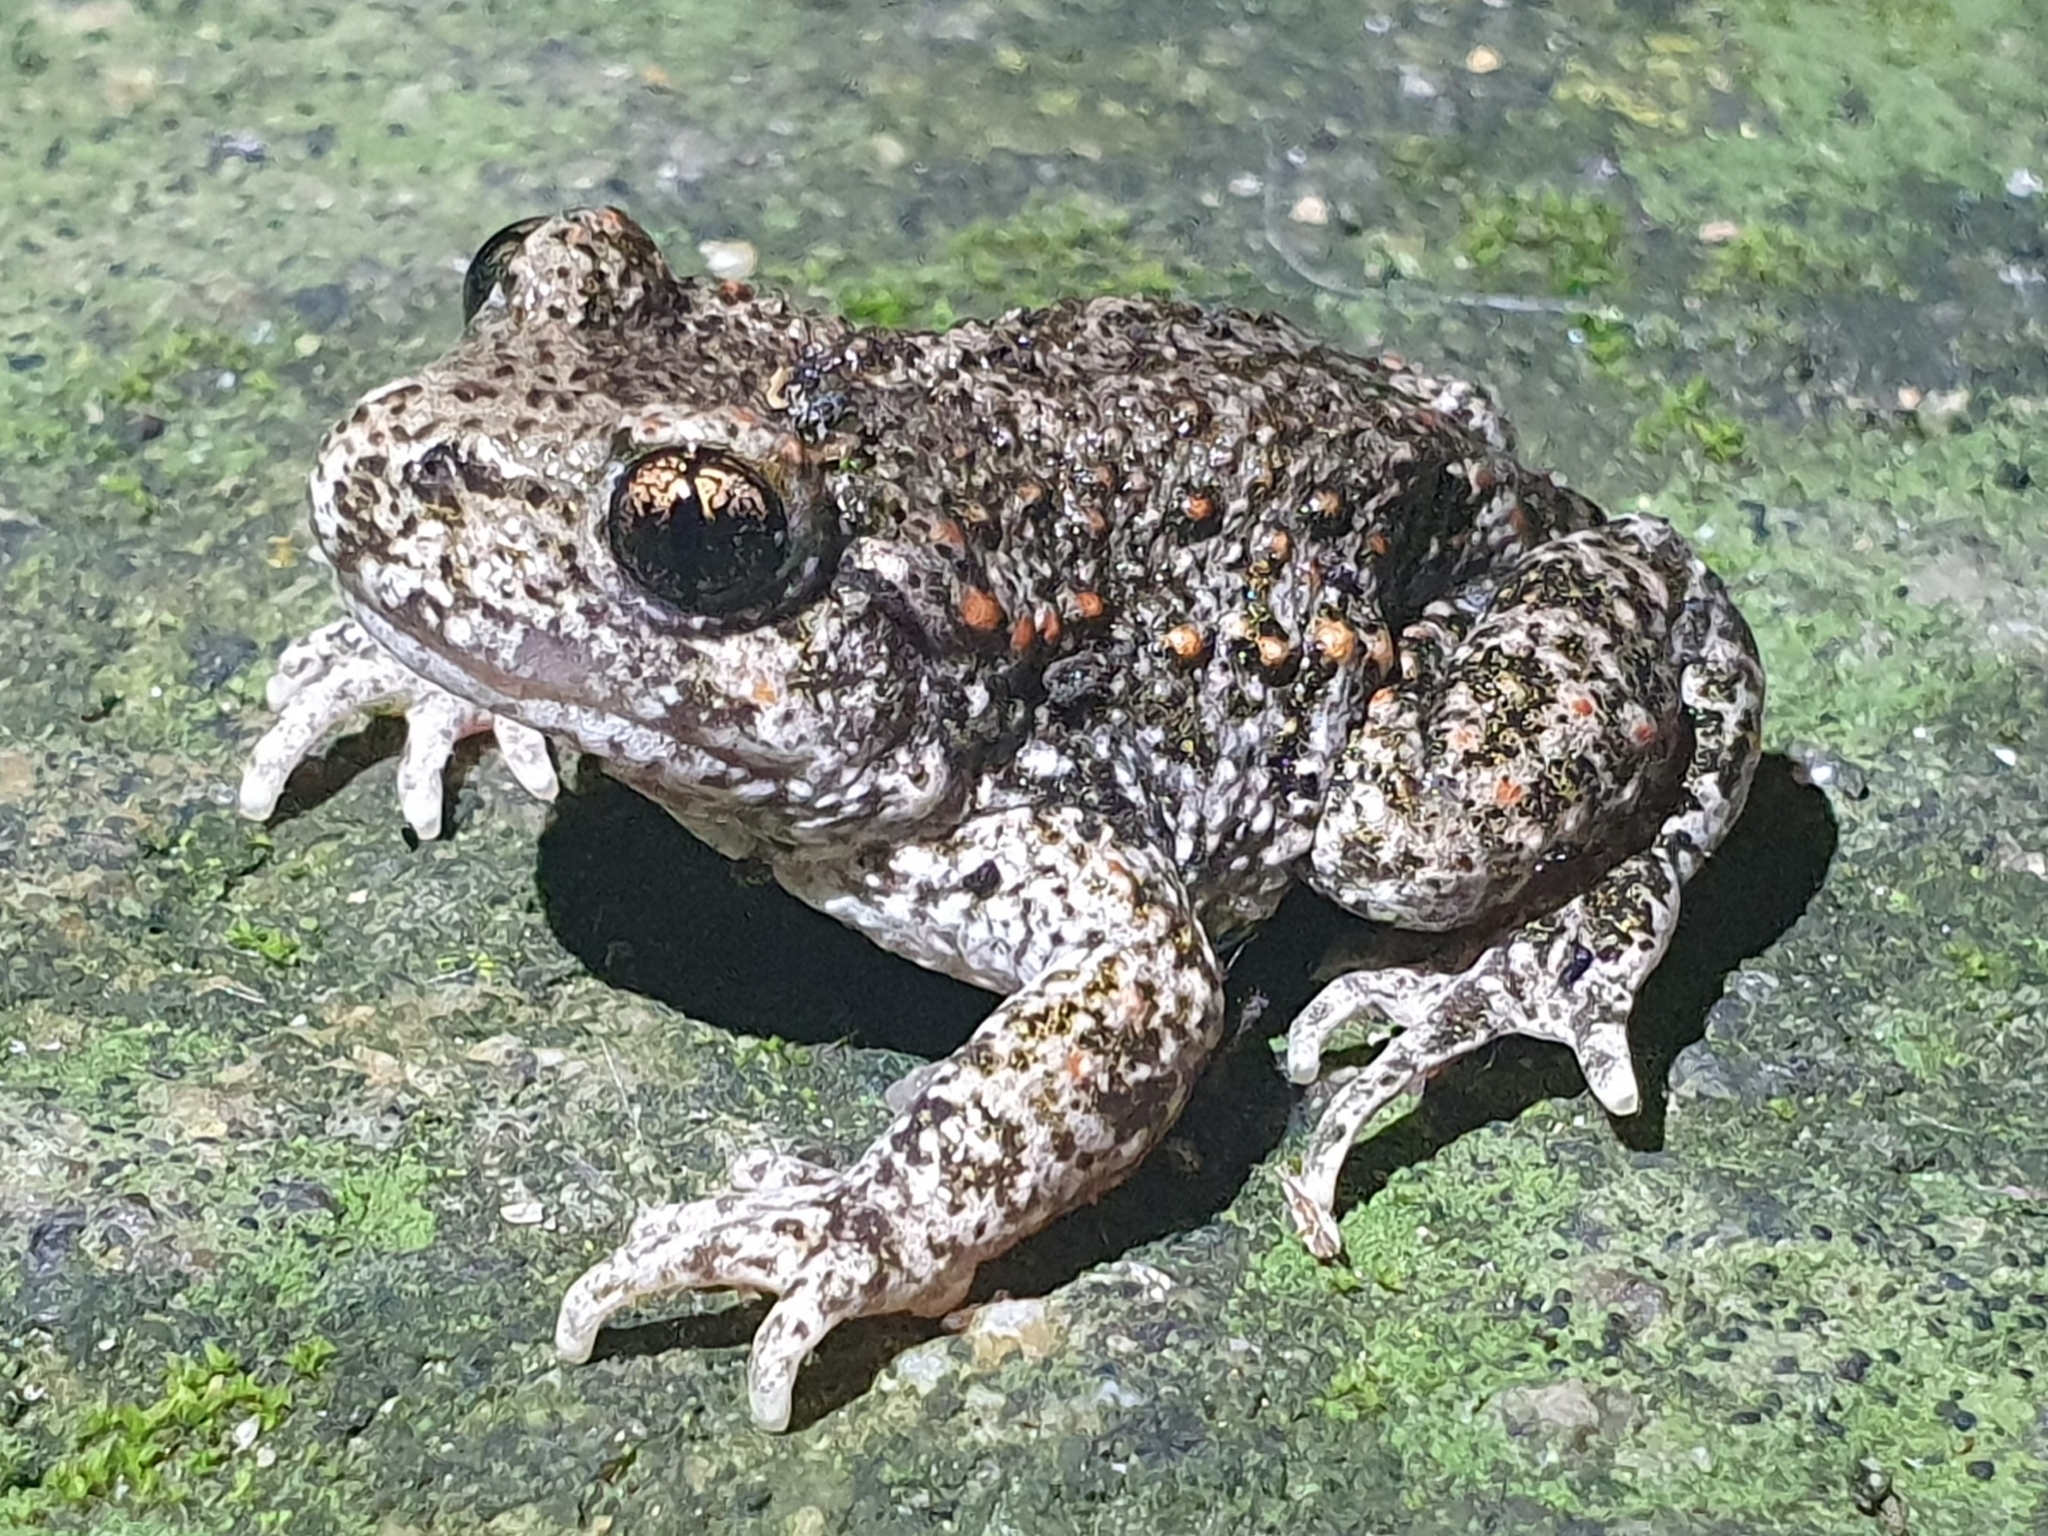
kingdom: Animalia
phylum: Chordata
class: Amphibia
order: Anura
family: Alytidae
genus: Alytes
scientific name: Alytes obstetricans
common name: Midwife toad
